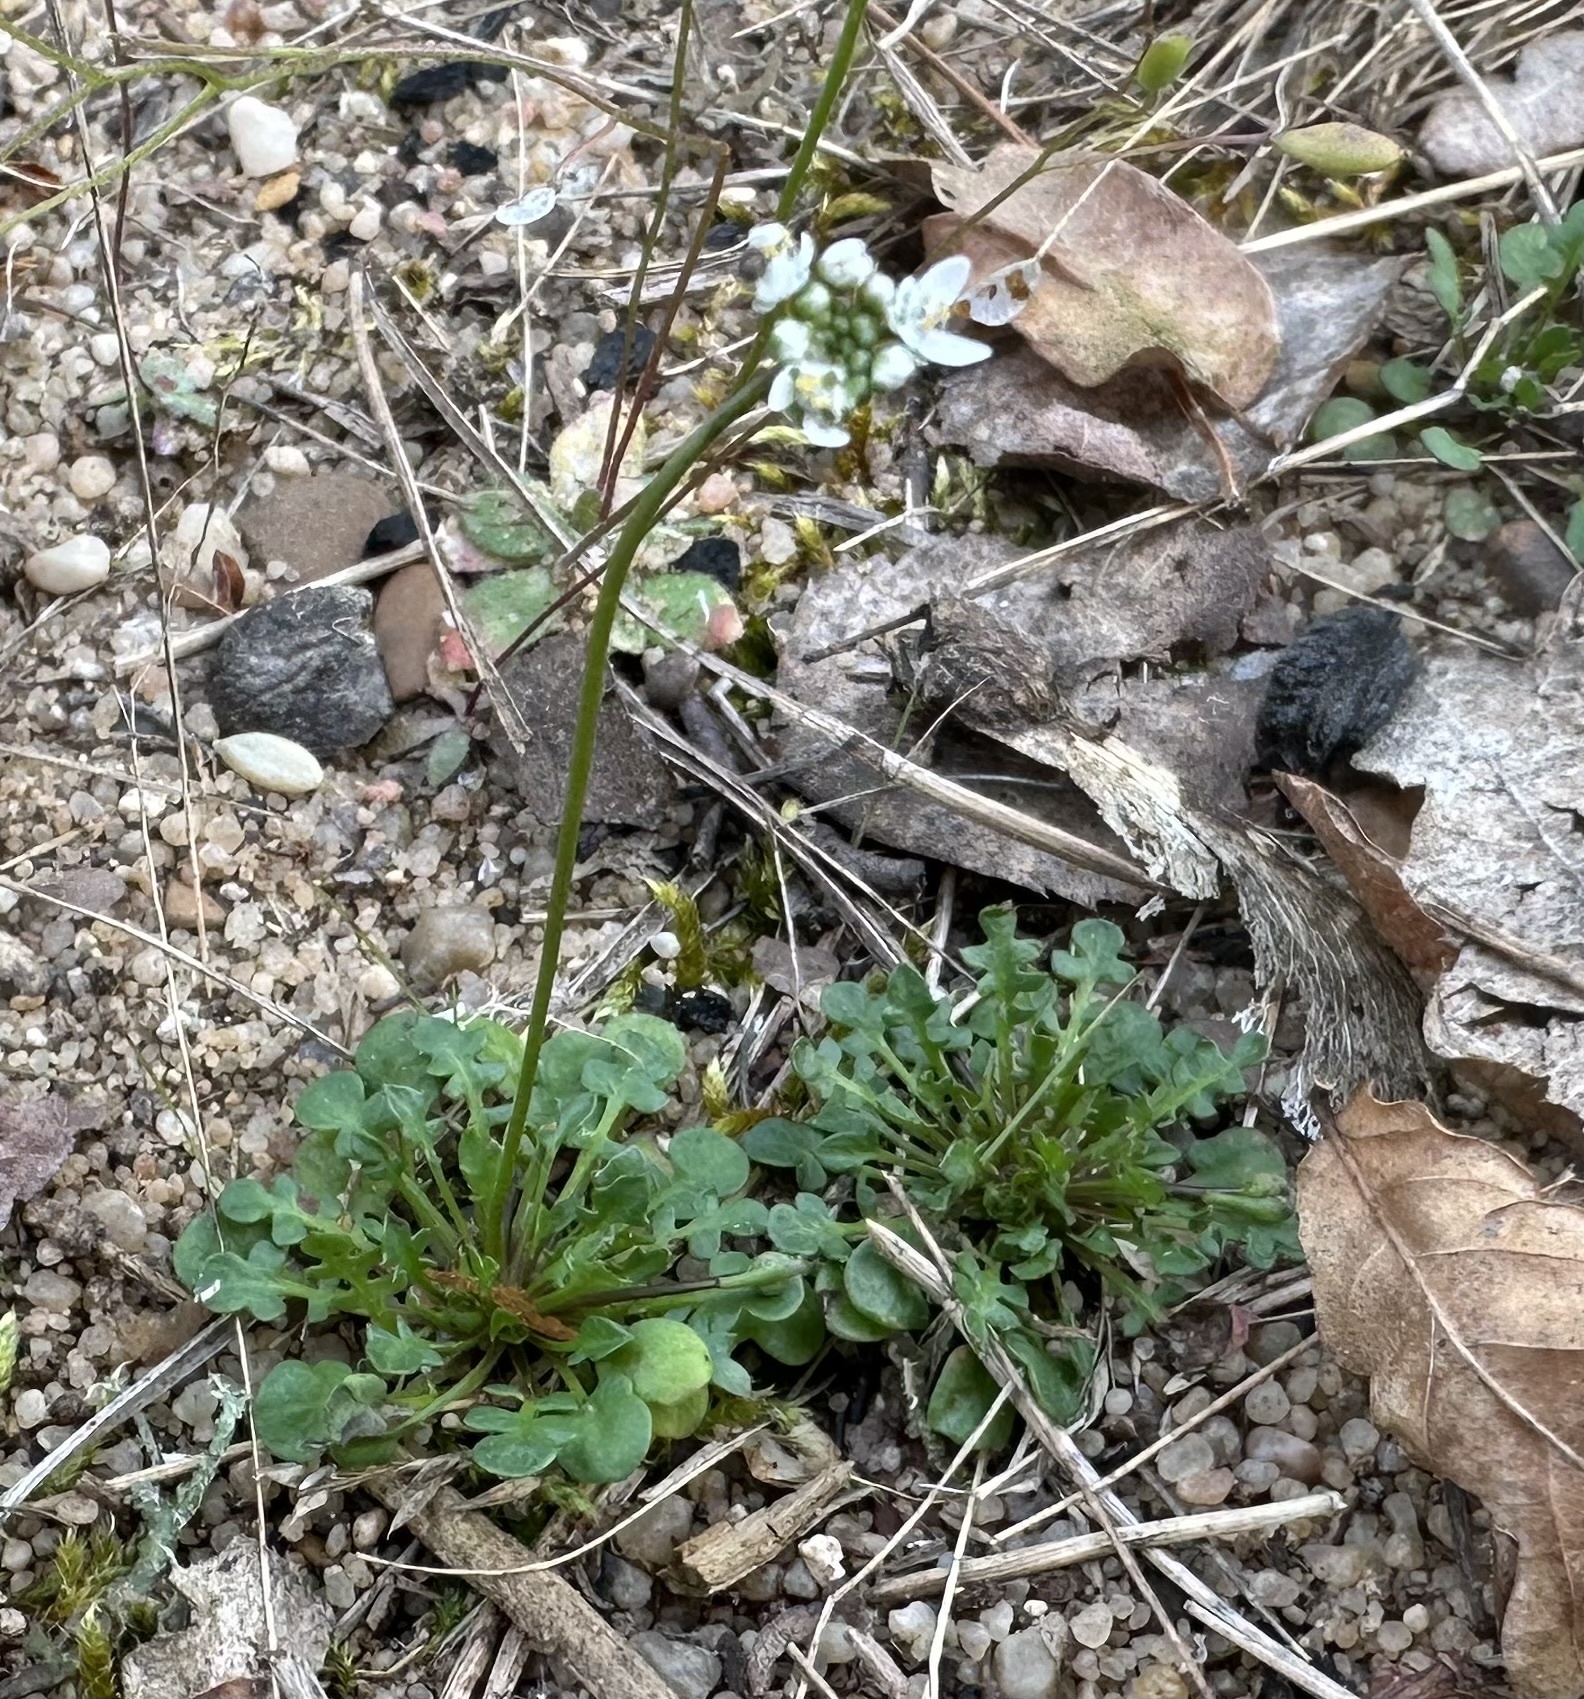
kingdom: Plantae
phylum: Tracheophyta
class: Magnoliopsida
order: Brassicales
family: Brassicaceae
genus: Teesdalia
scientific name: Teesdalia nudicaulis
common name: Shepherd's cress
